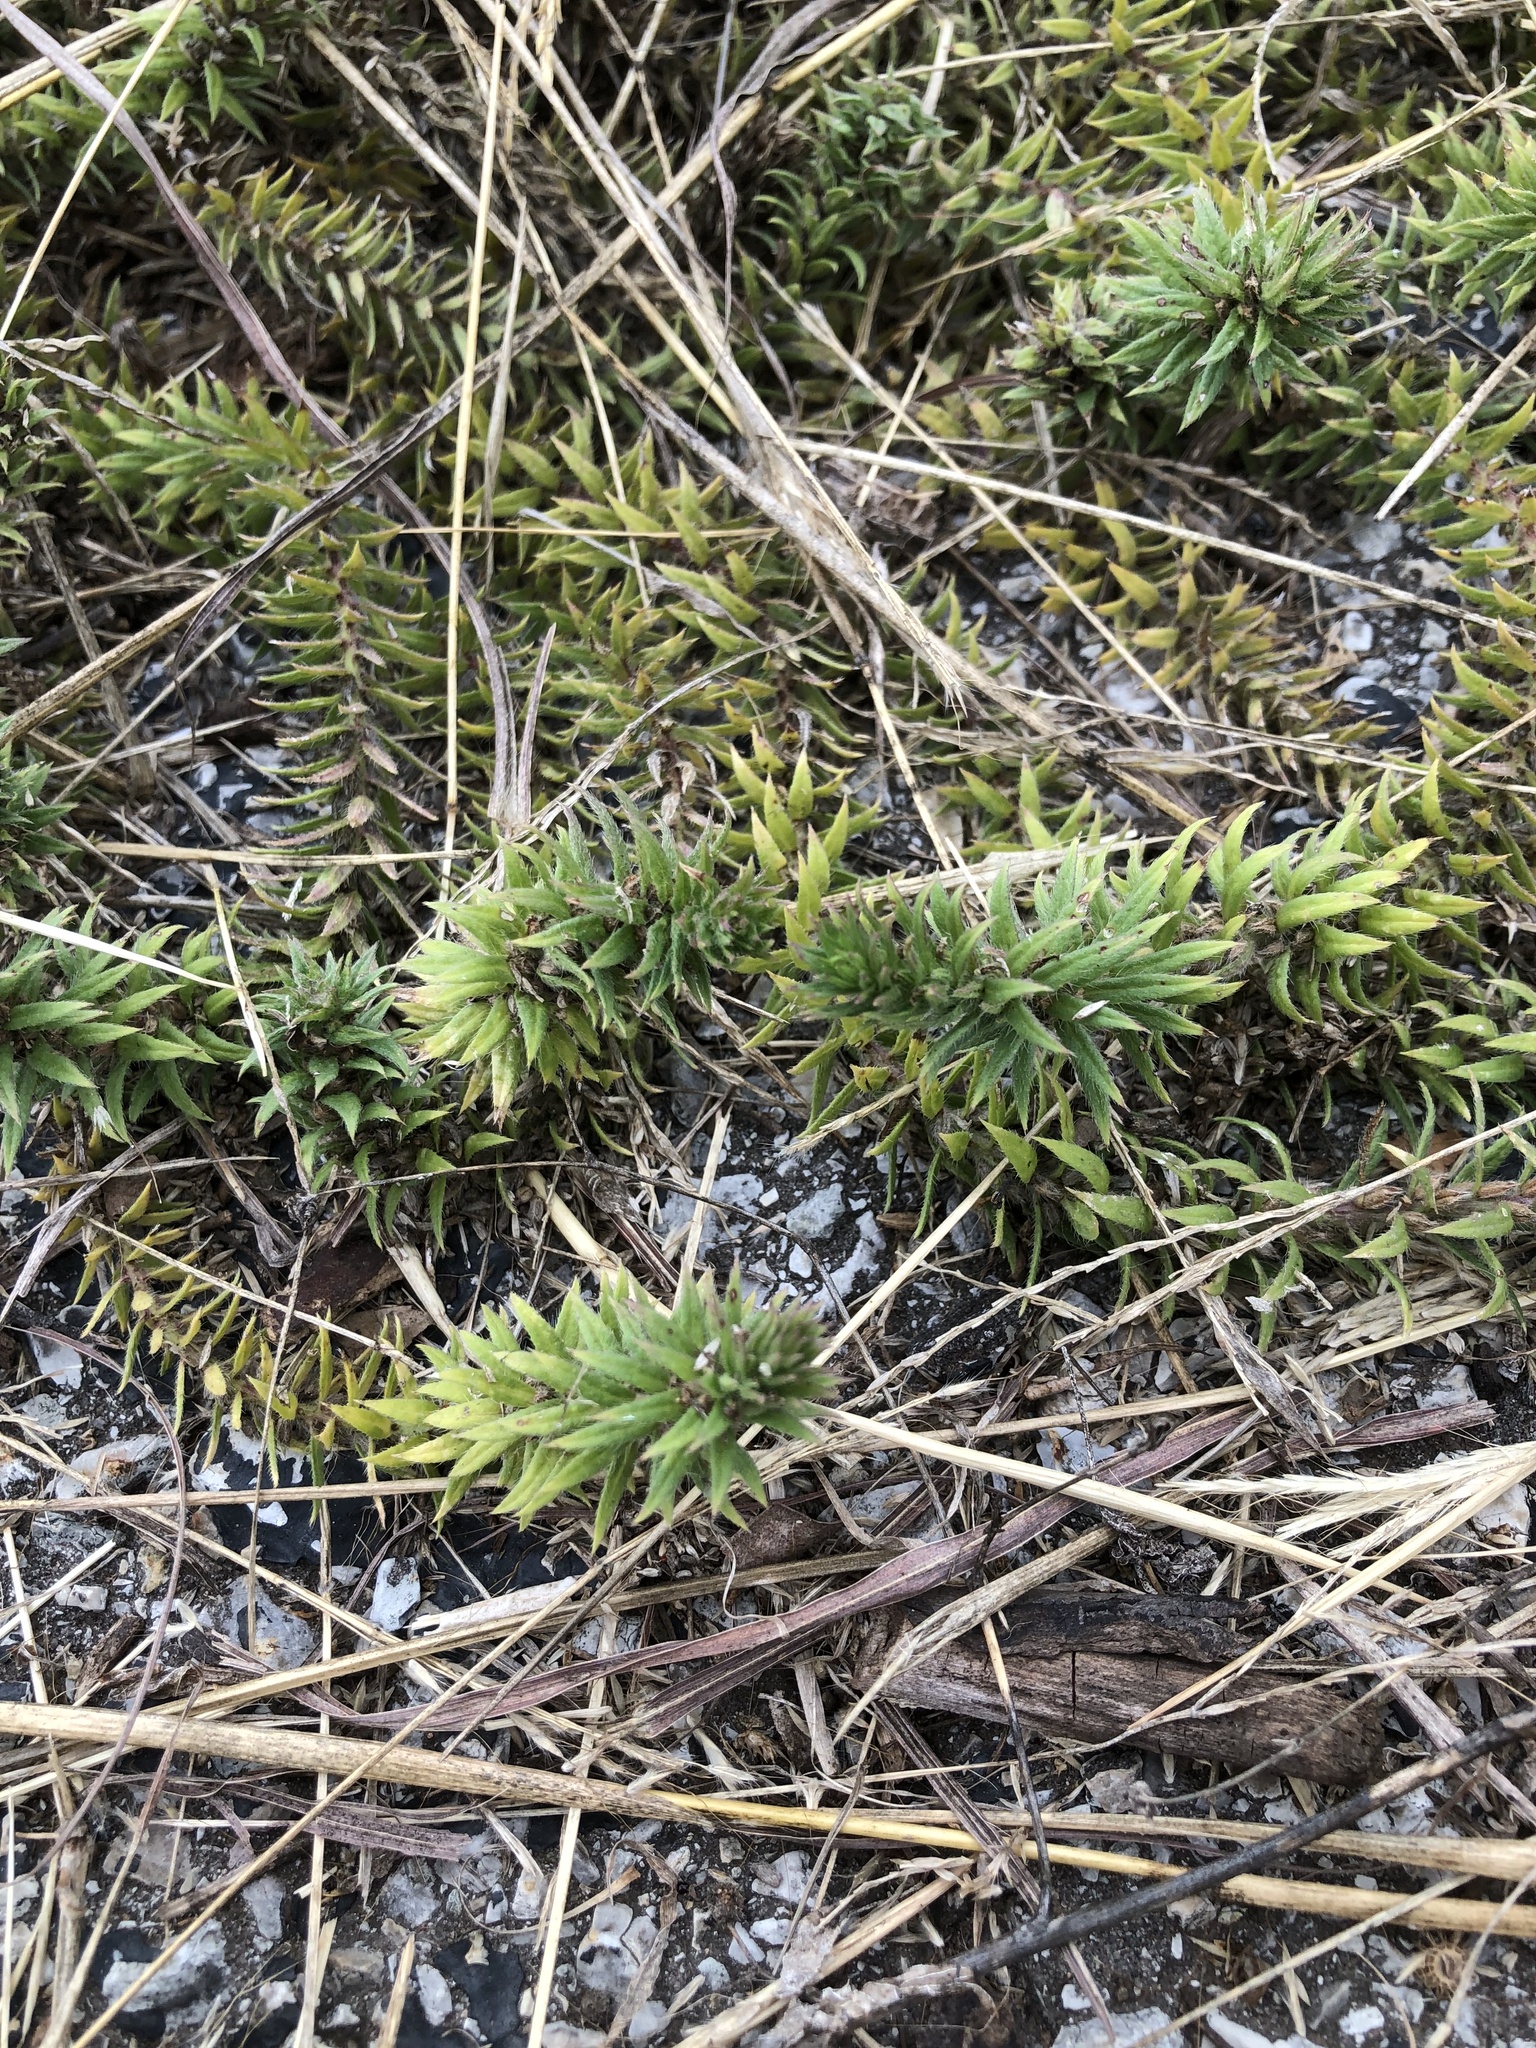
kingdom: Plantae
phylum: Tracheophyta
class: Magnoliopsida
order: Lamiales
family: Verbenaceae
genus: Verbena
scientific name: Verbena bracteata
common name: Bracted vervain
